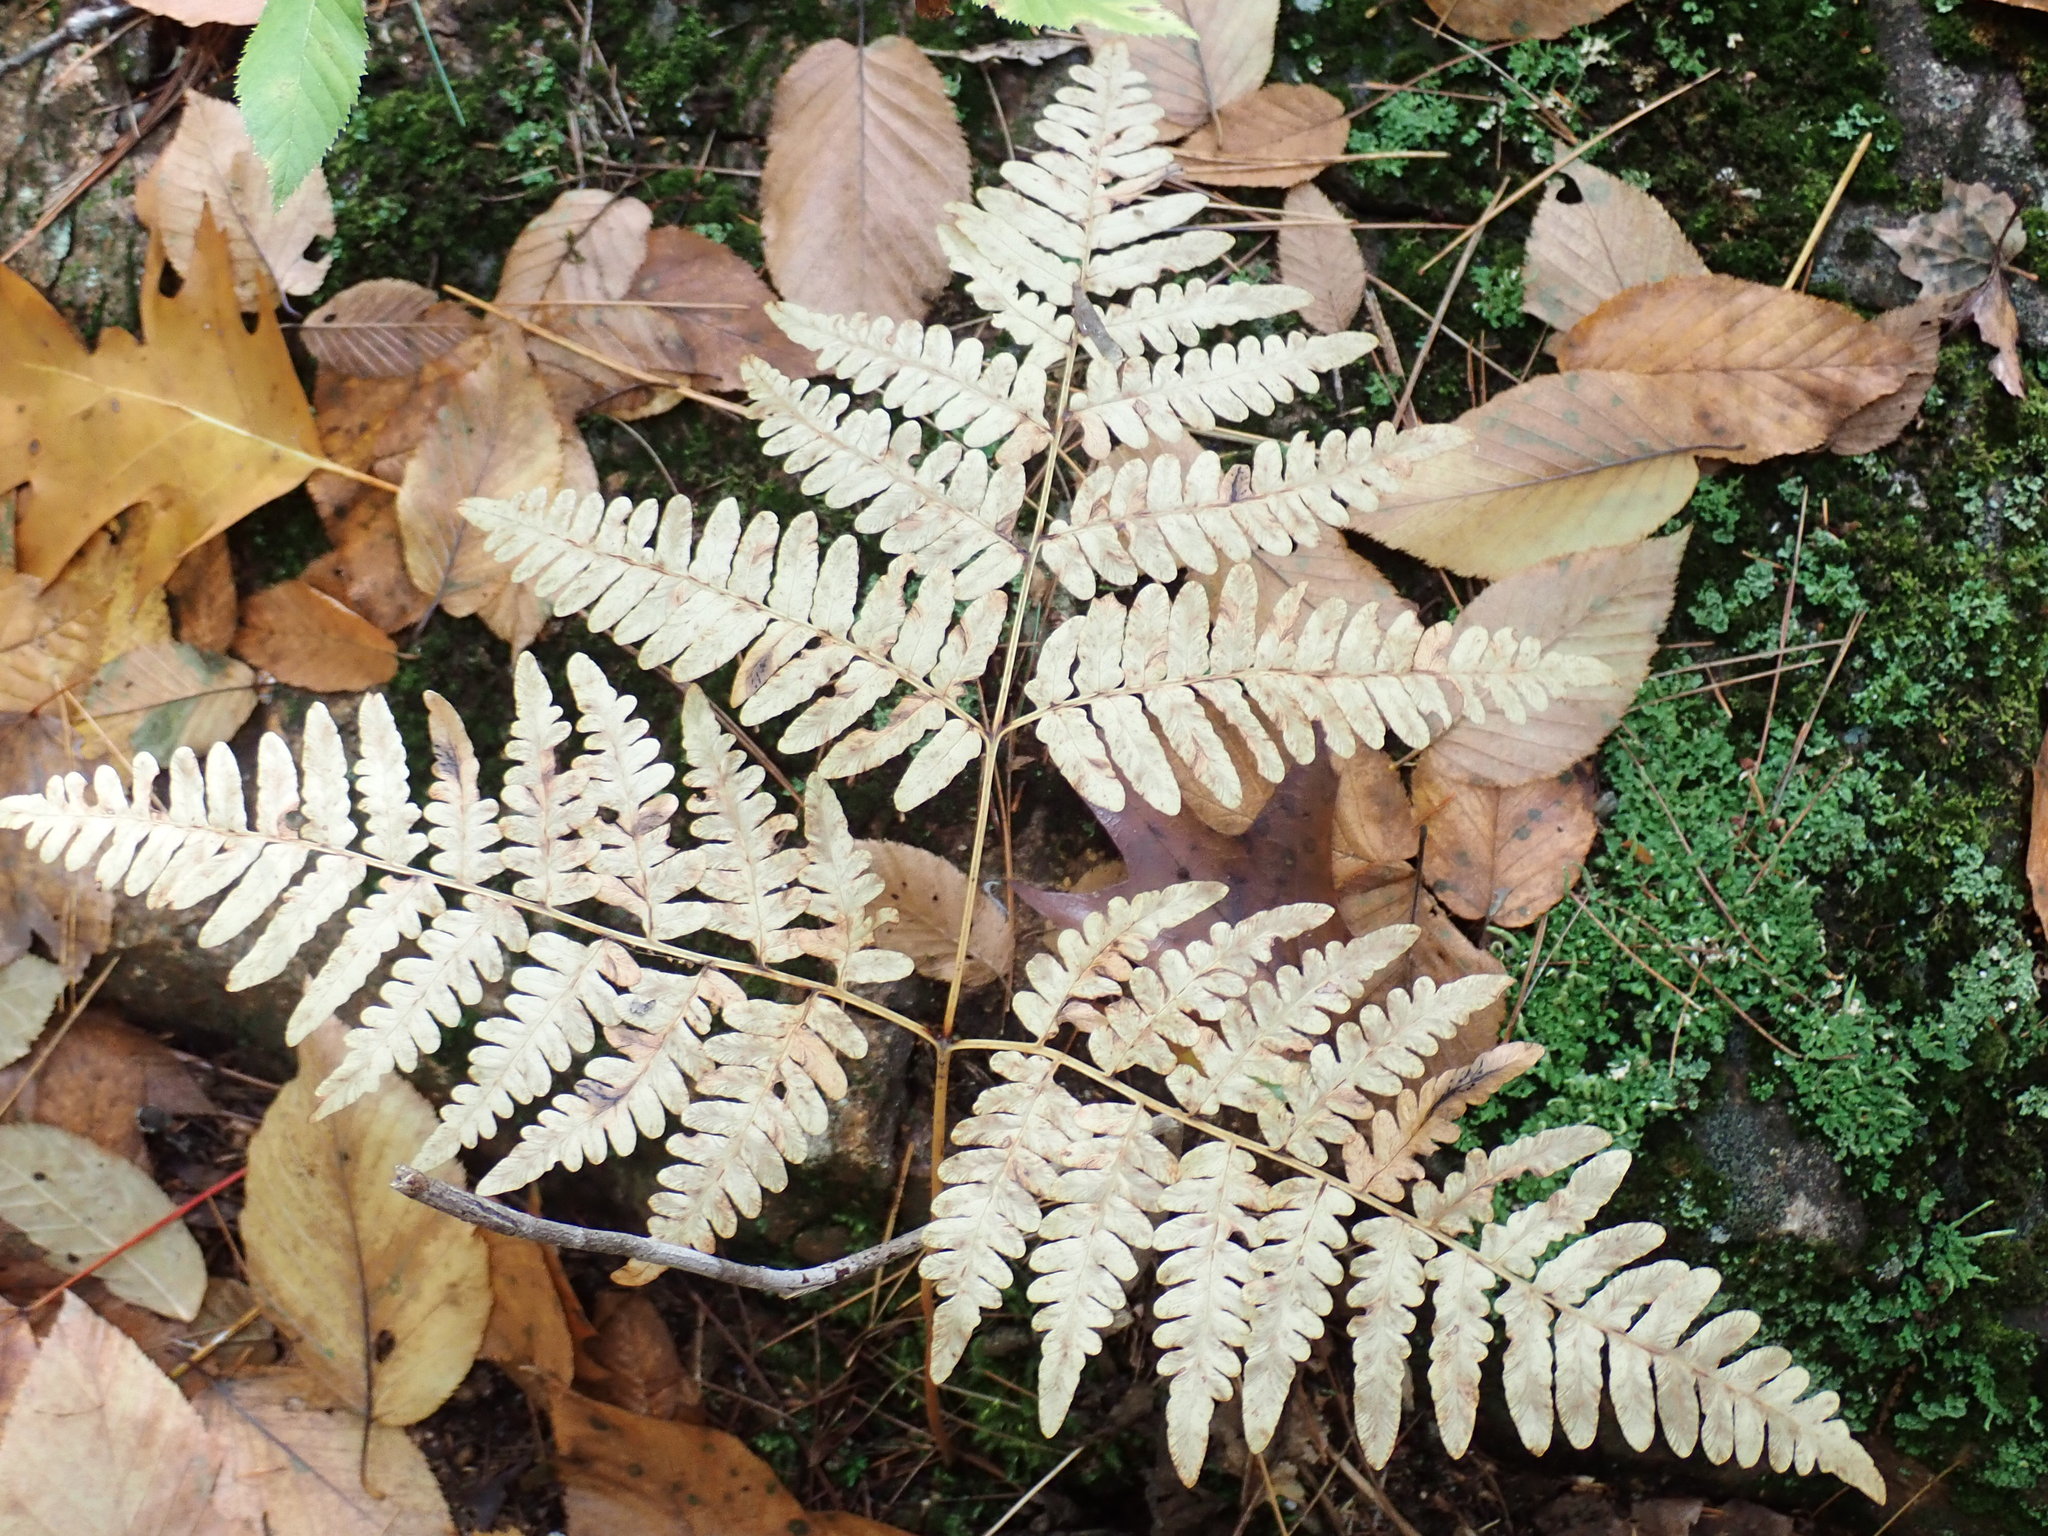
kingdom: Plantae
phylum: Tracheophyta
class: Polypodiopsida
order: Polypodiales
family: Dennstaedtiaceae
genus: Pteridium
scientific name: Pteridium aquilinum
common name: Bracken
